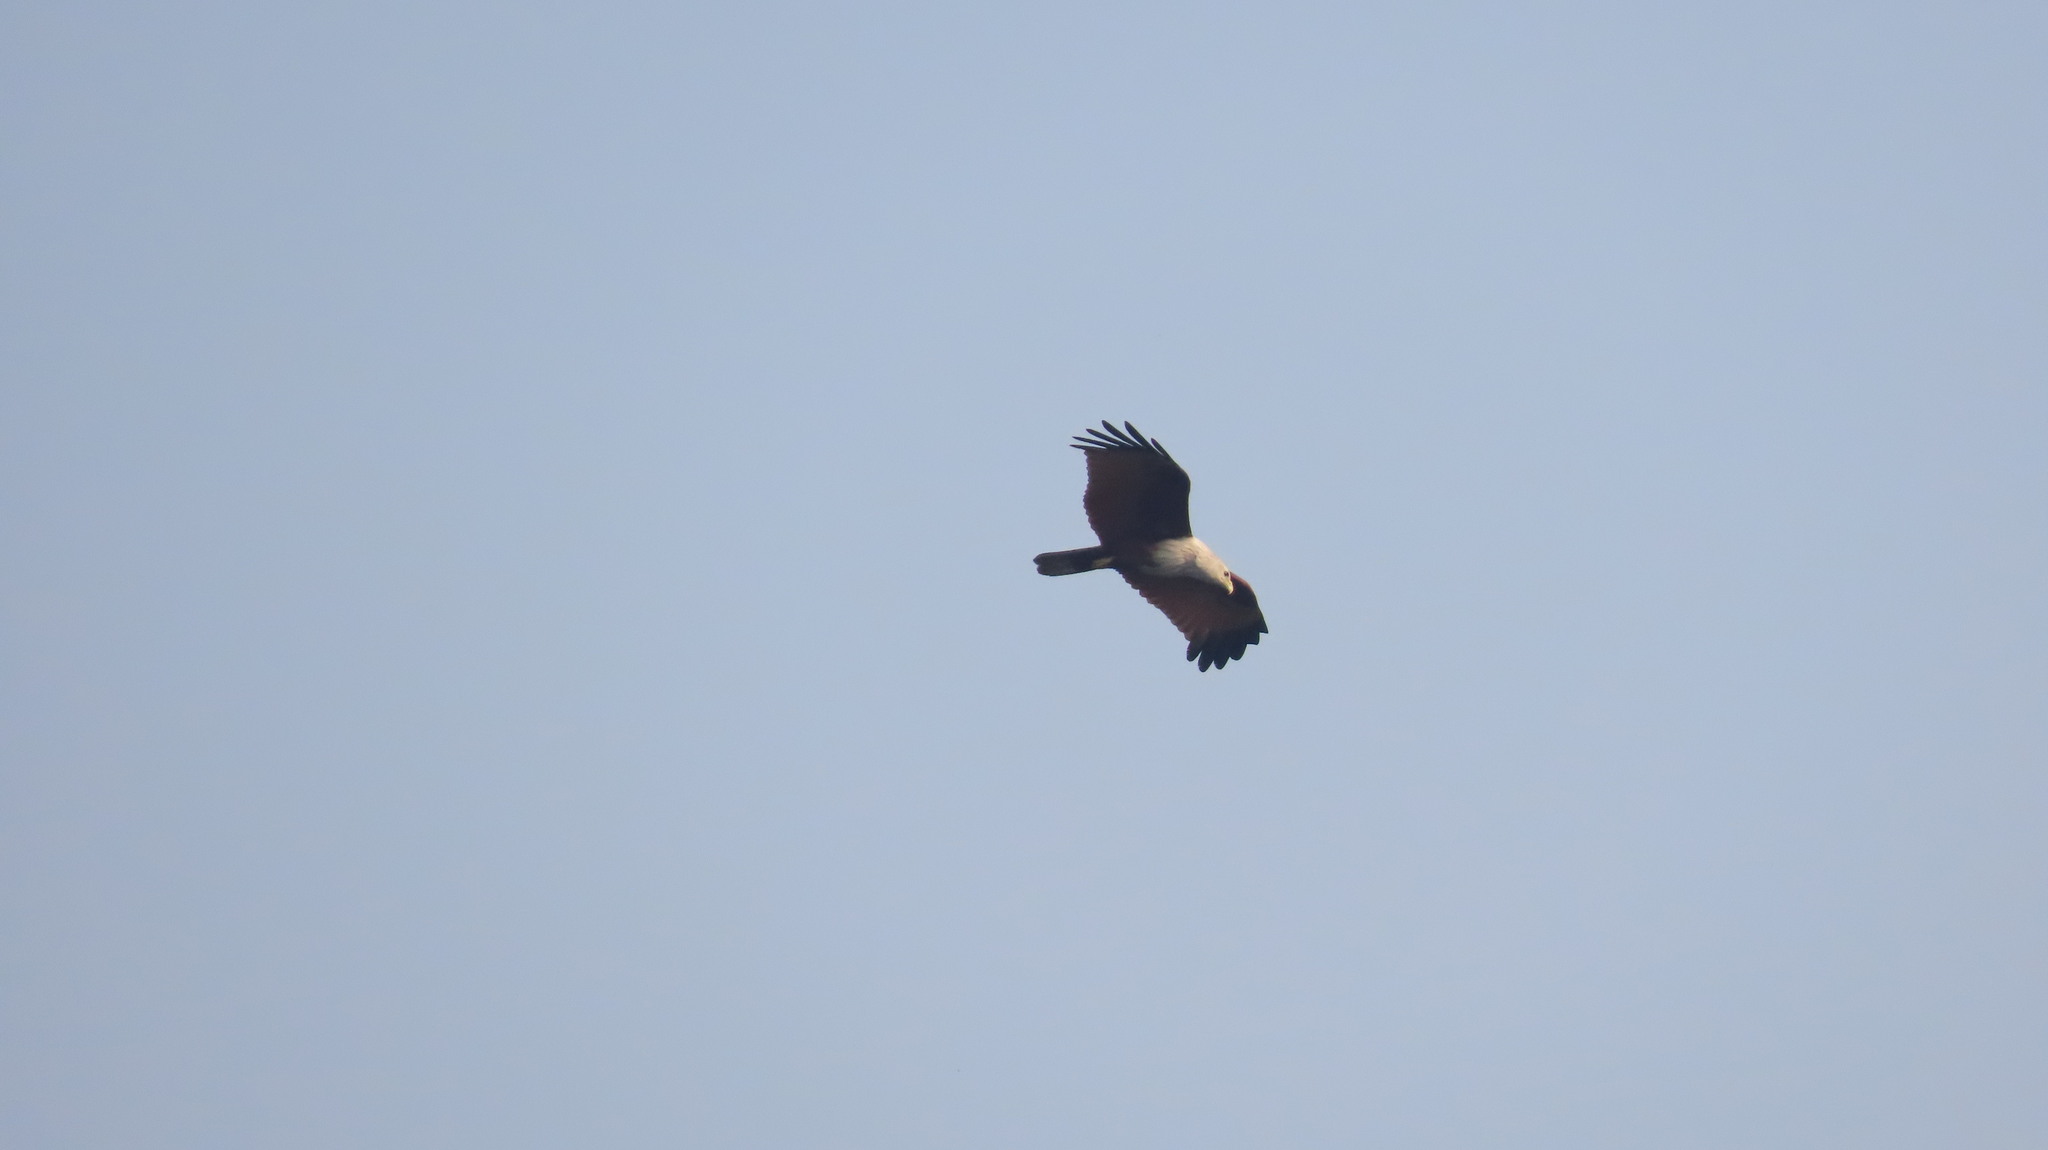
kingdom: Animalia
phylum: Chordata
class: Aves
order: Accipitriformes
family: Accipitridae
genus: Haliastur
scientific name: Haliastur indus
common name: Brahminy kite
